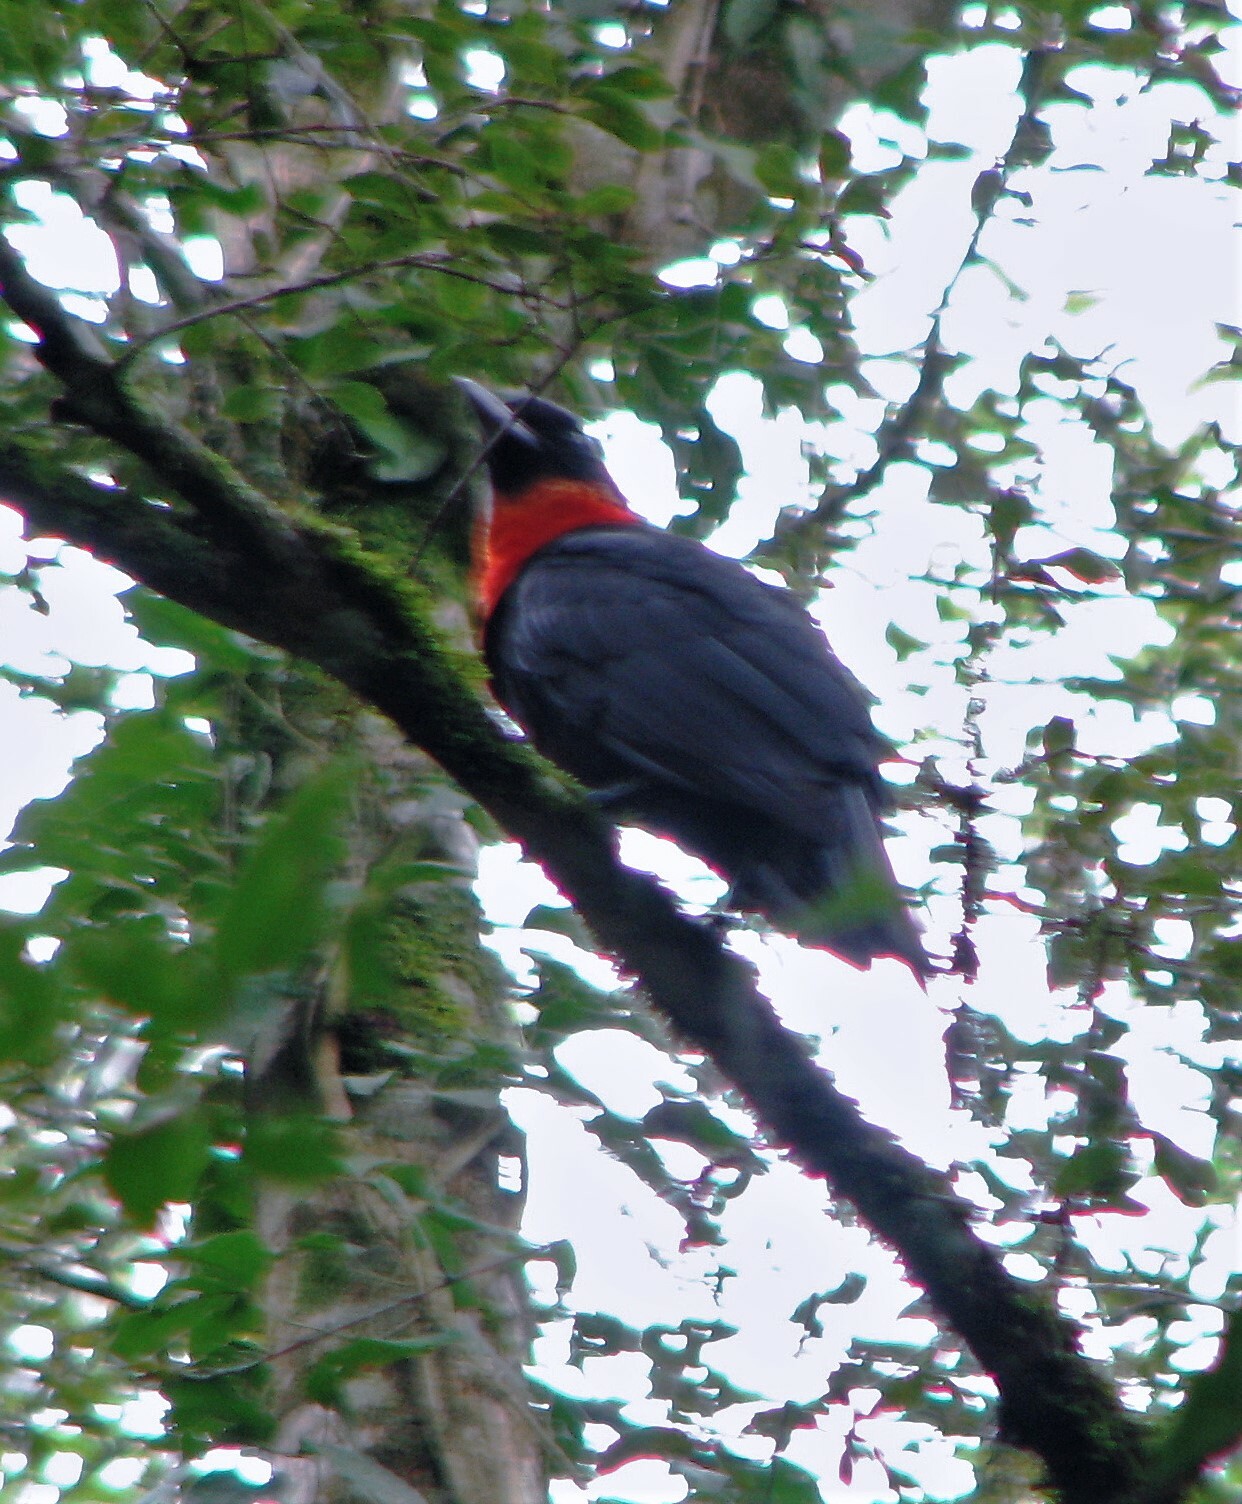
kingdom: Animalia
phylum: Chordata
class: Aves
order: Passeriformes
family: Cotingidae
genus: Pyroderus
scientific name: Pyroderus scutatus
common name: Red-ruffed fruitcrow
